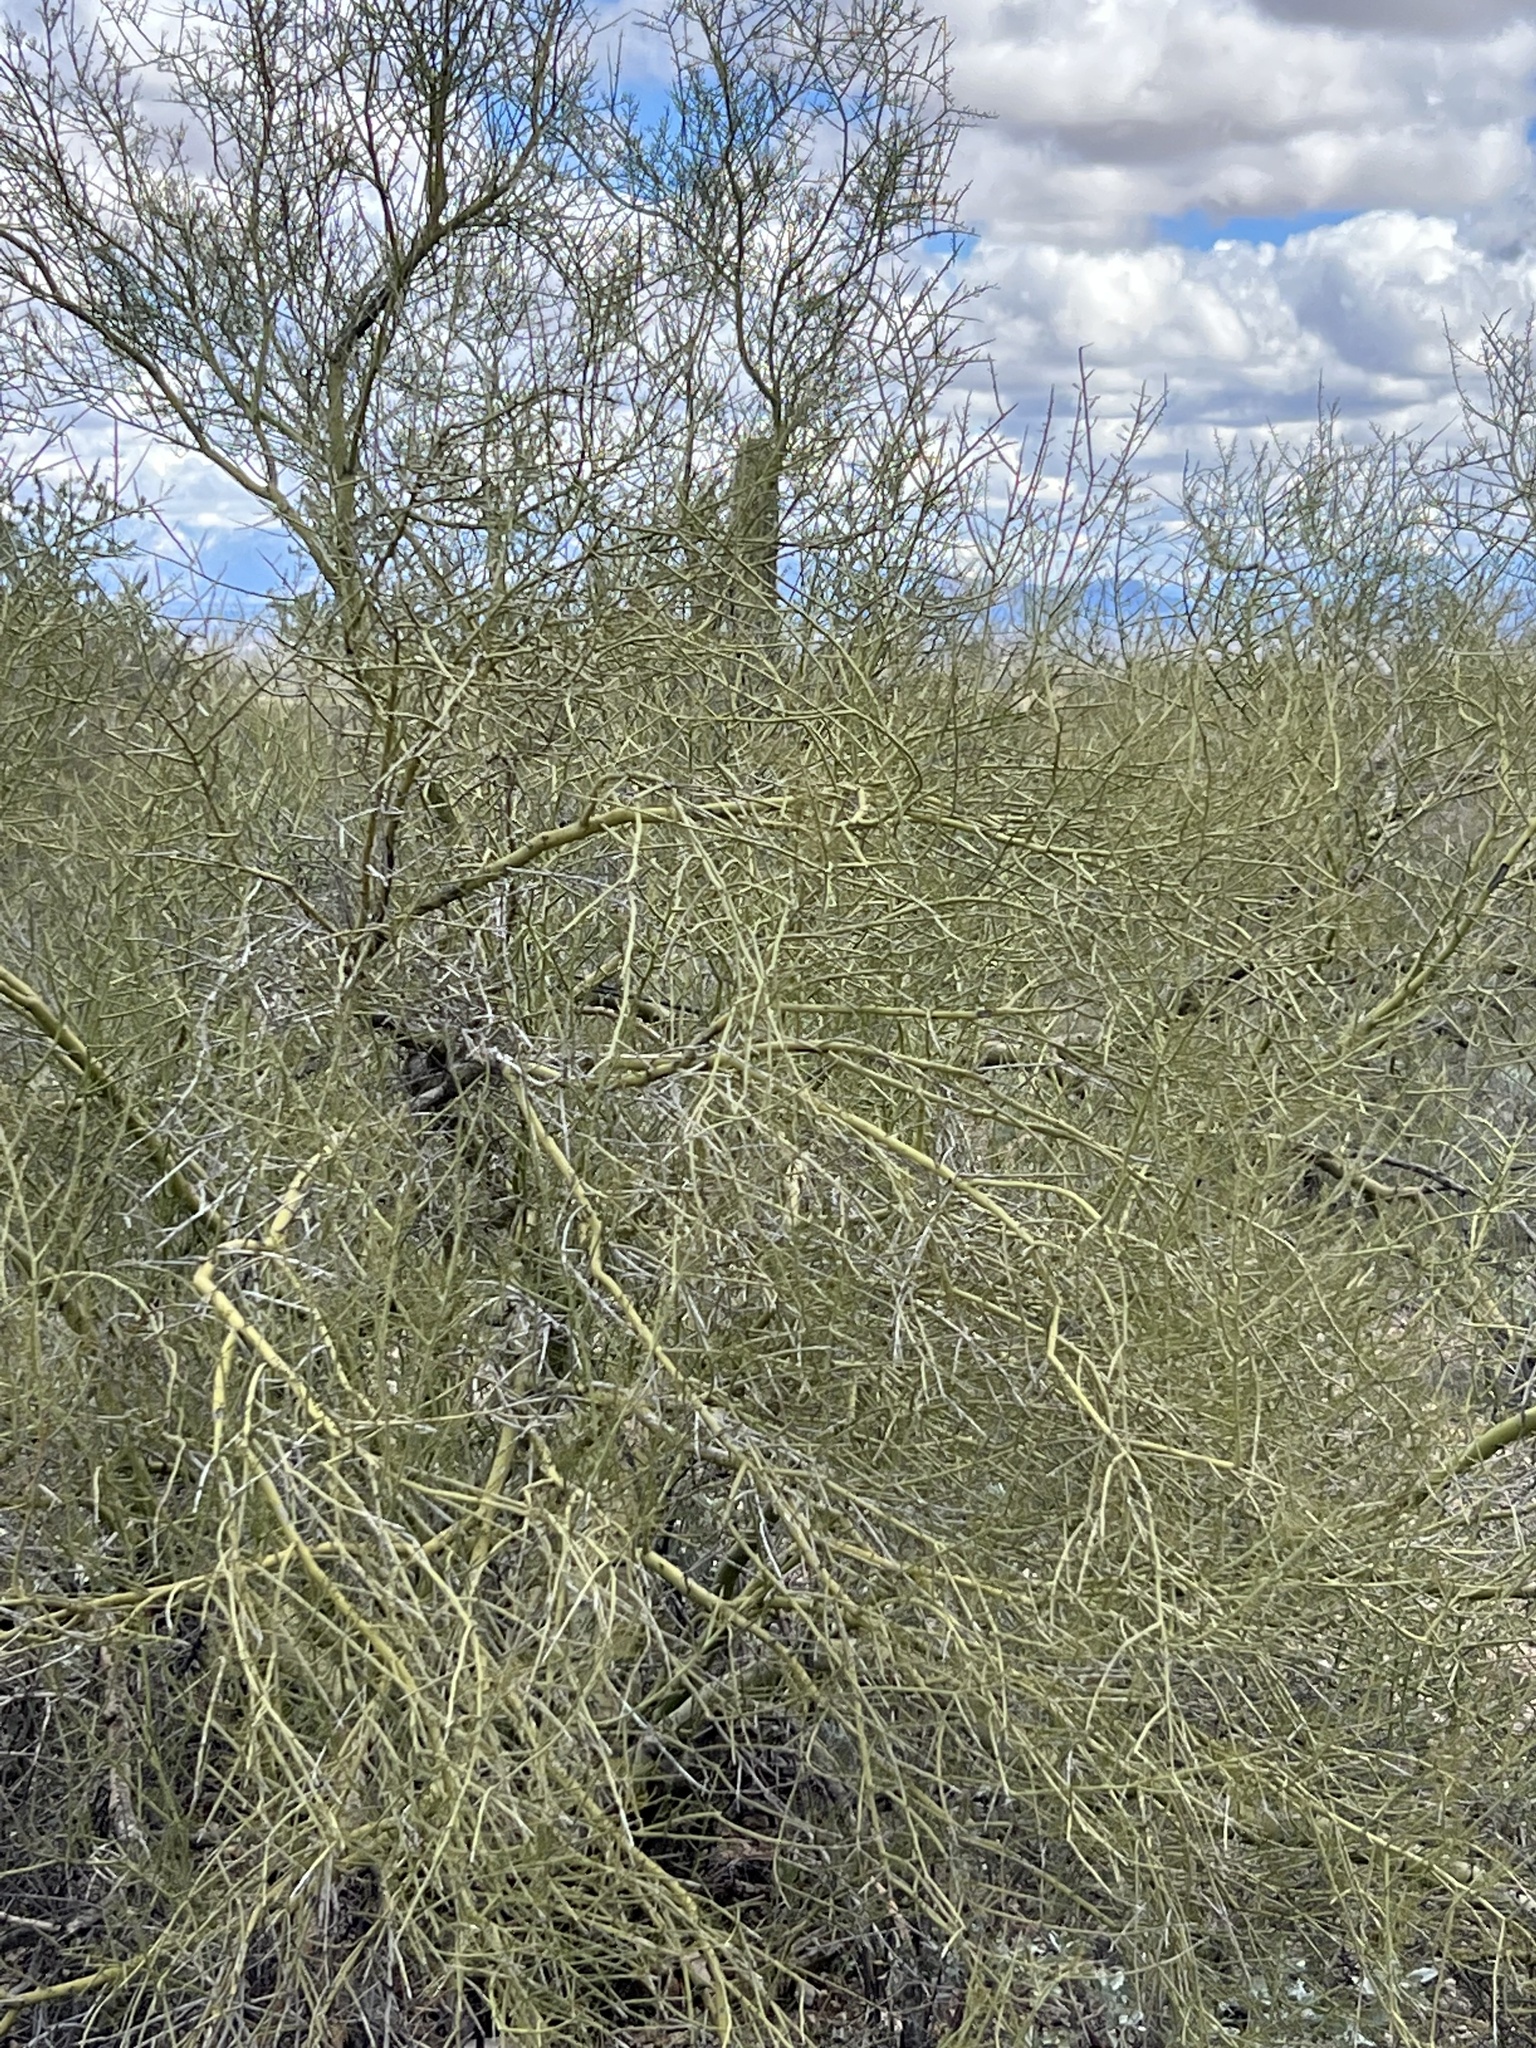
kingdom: Plantae
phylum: Tracheophyta
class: Magnoliopsida
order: Fabales
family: Fabaceae
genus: Parkinsonia
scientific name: Parkinsonia microphylla
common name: Yellow paloverde
